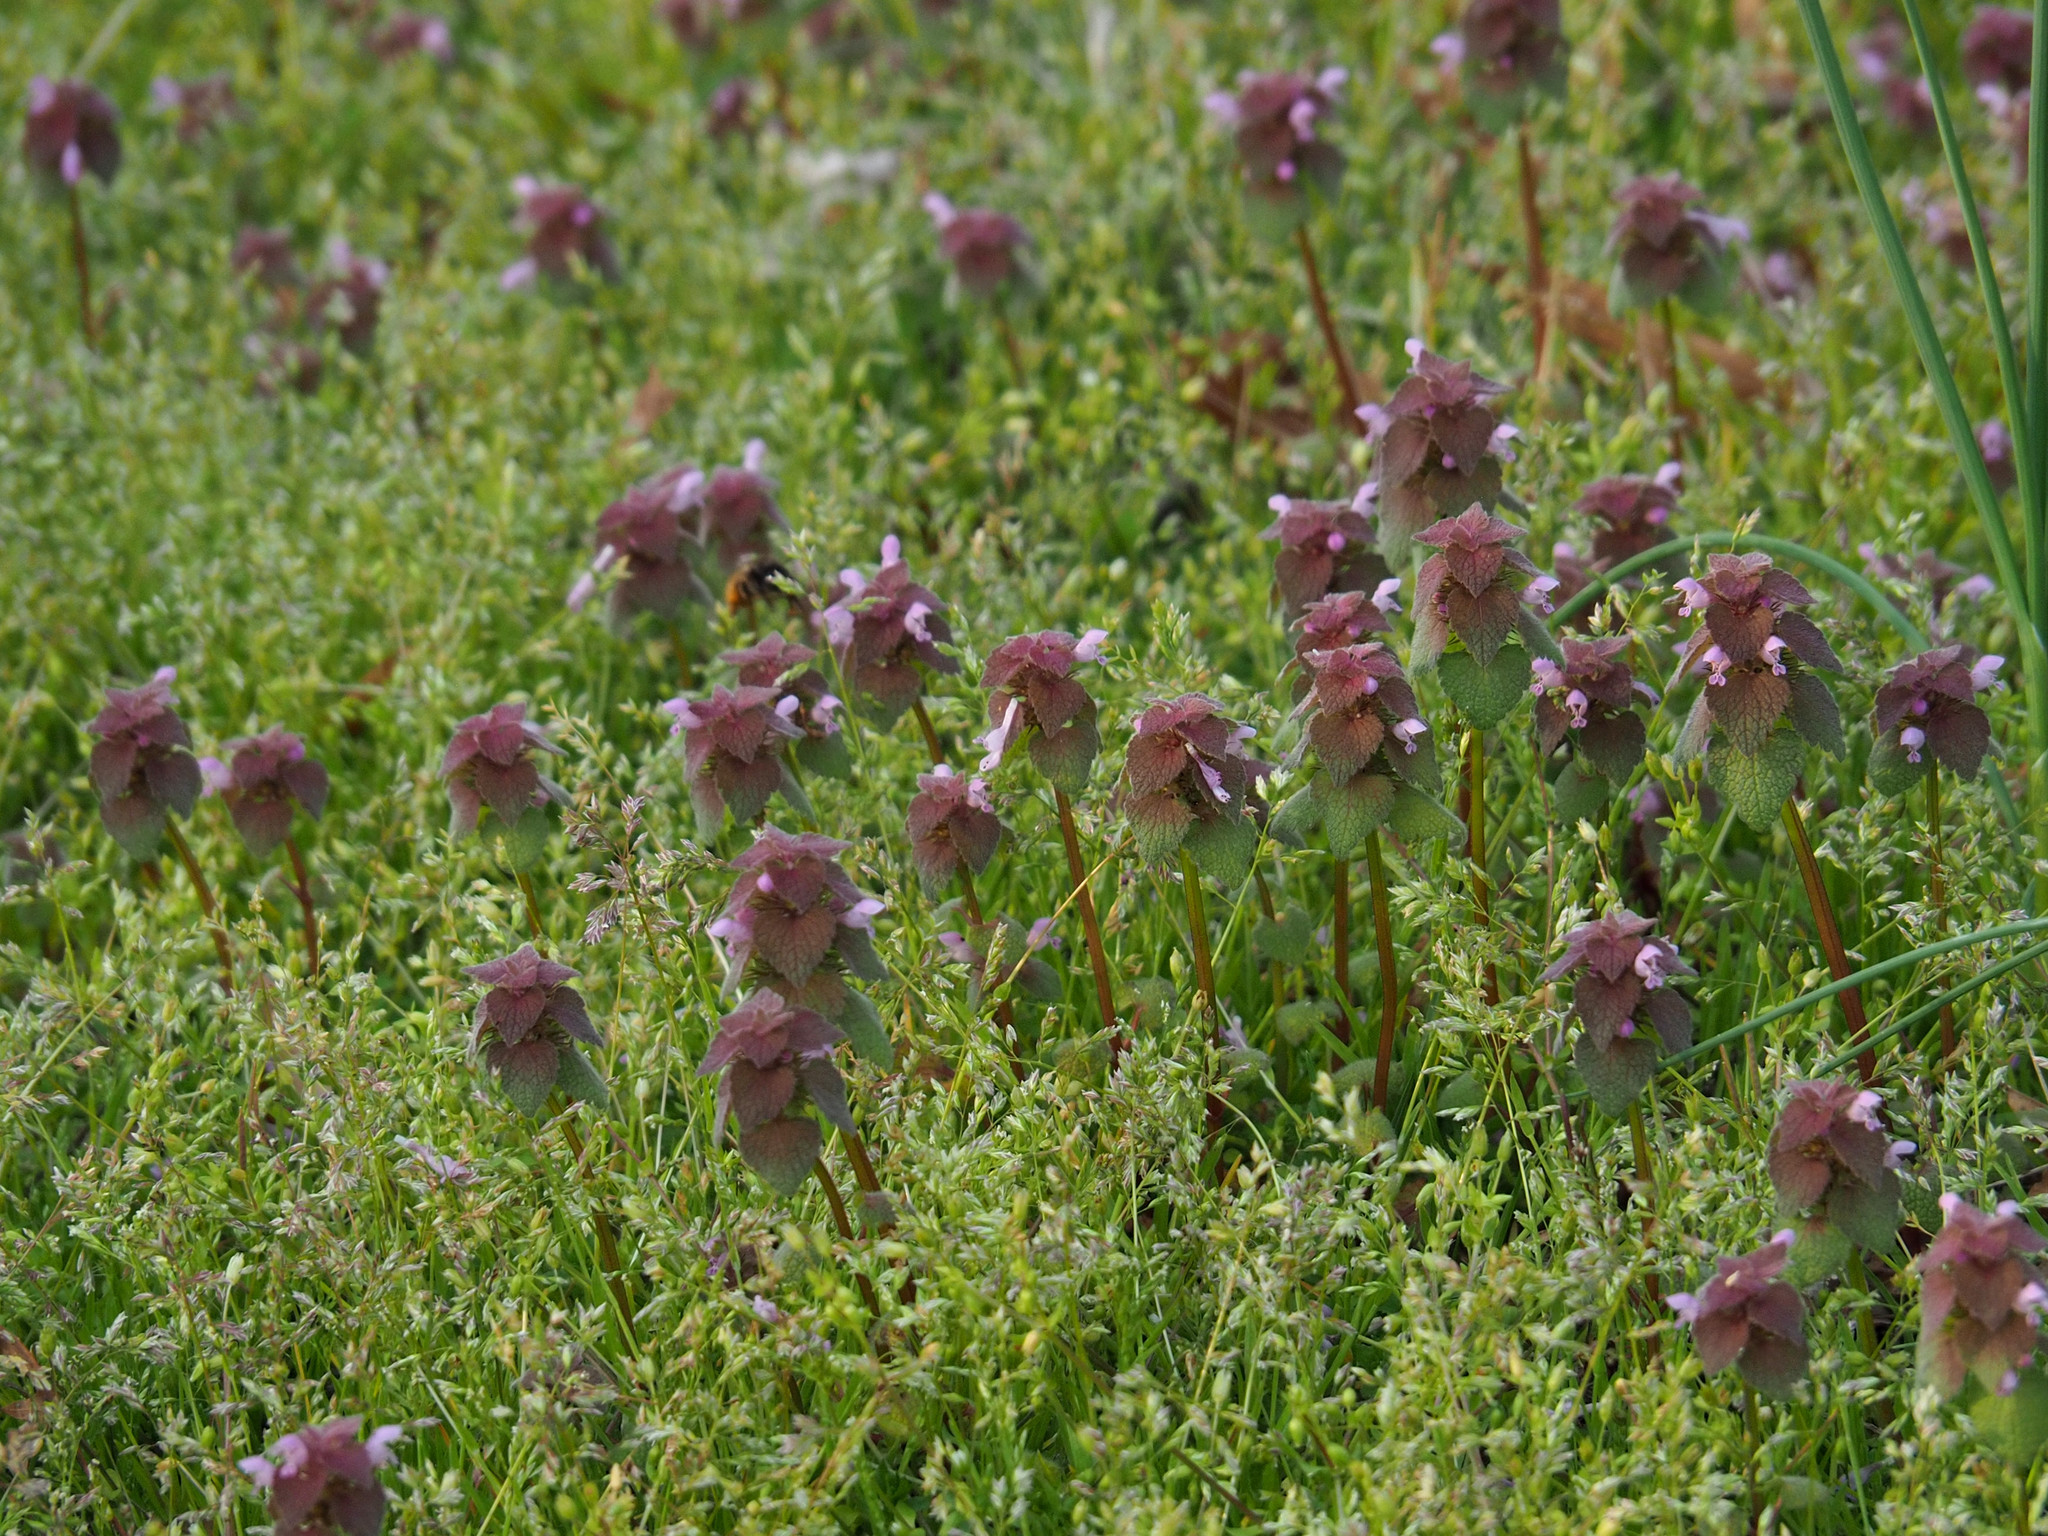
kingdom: Plantae
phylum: Tracheophyta
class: Magnoliopsida
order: Lamiales
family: Lamiaceae
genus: Lamium
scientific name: Lamium purpureum
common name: Red dead-nettle
